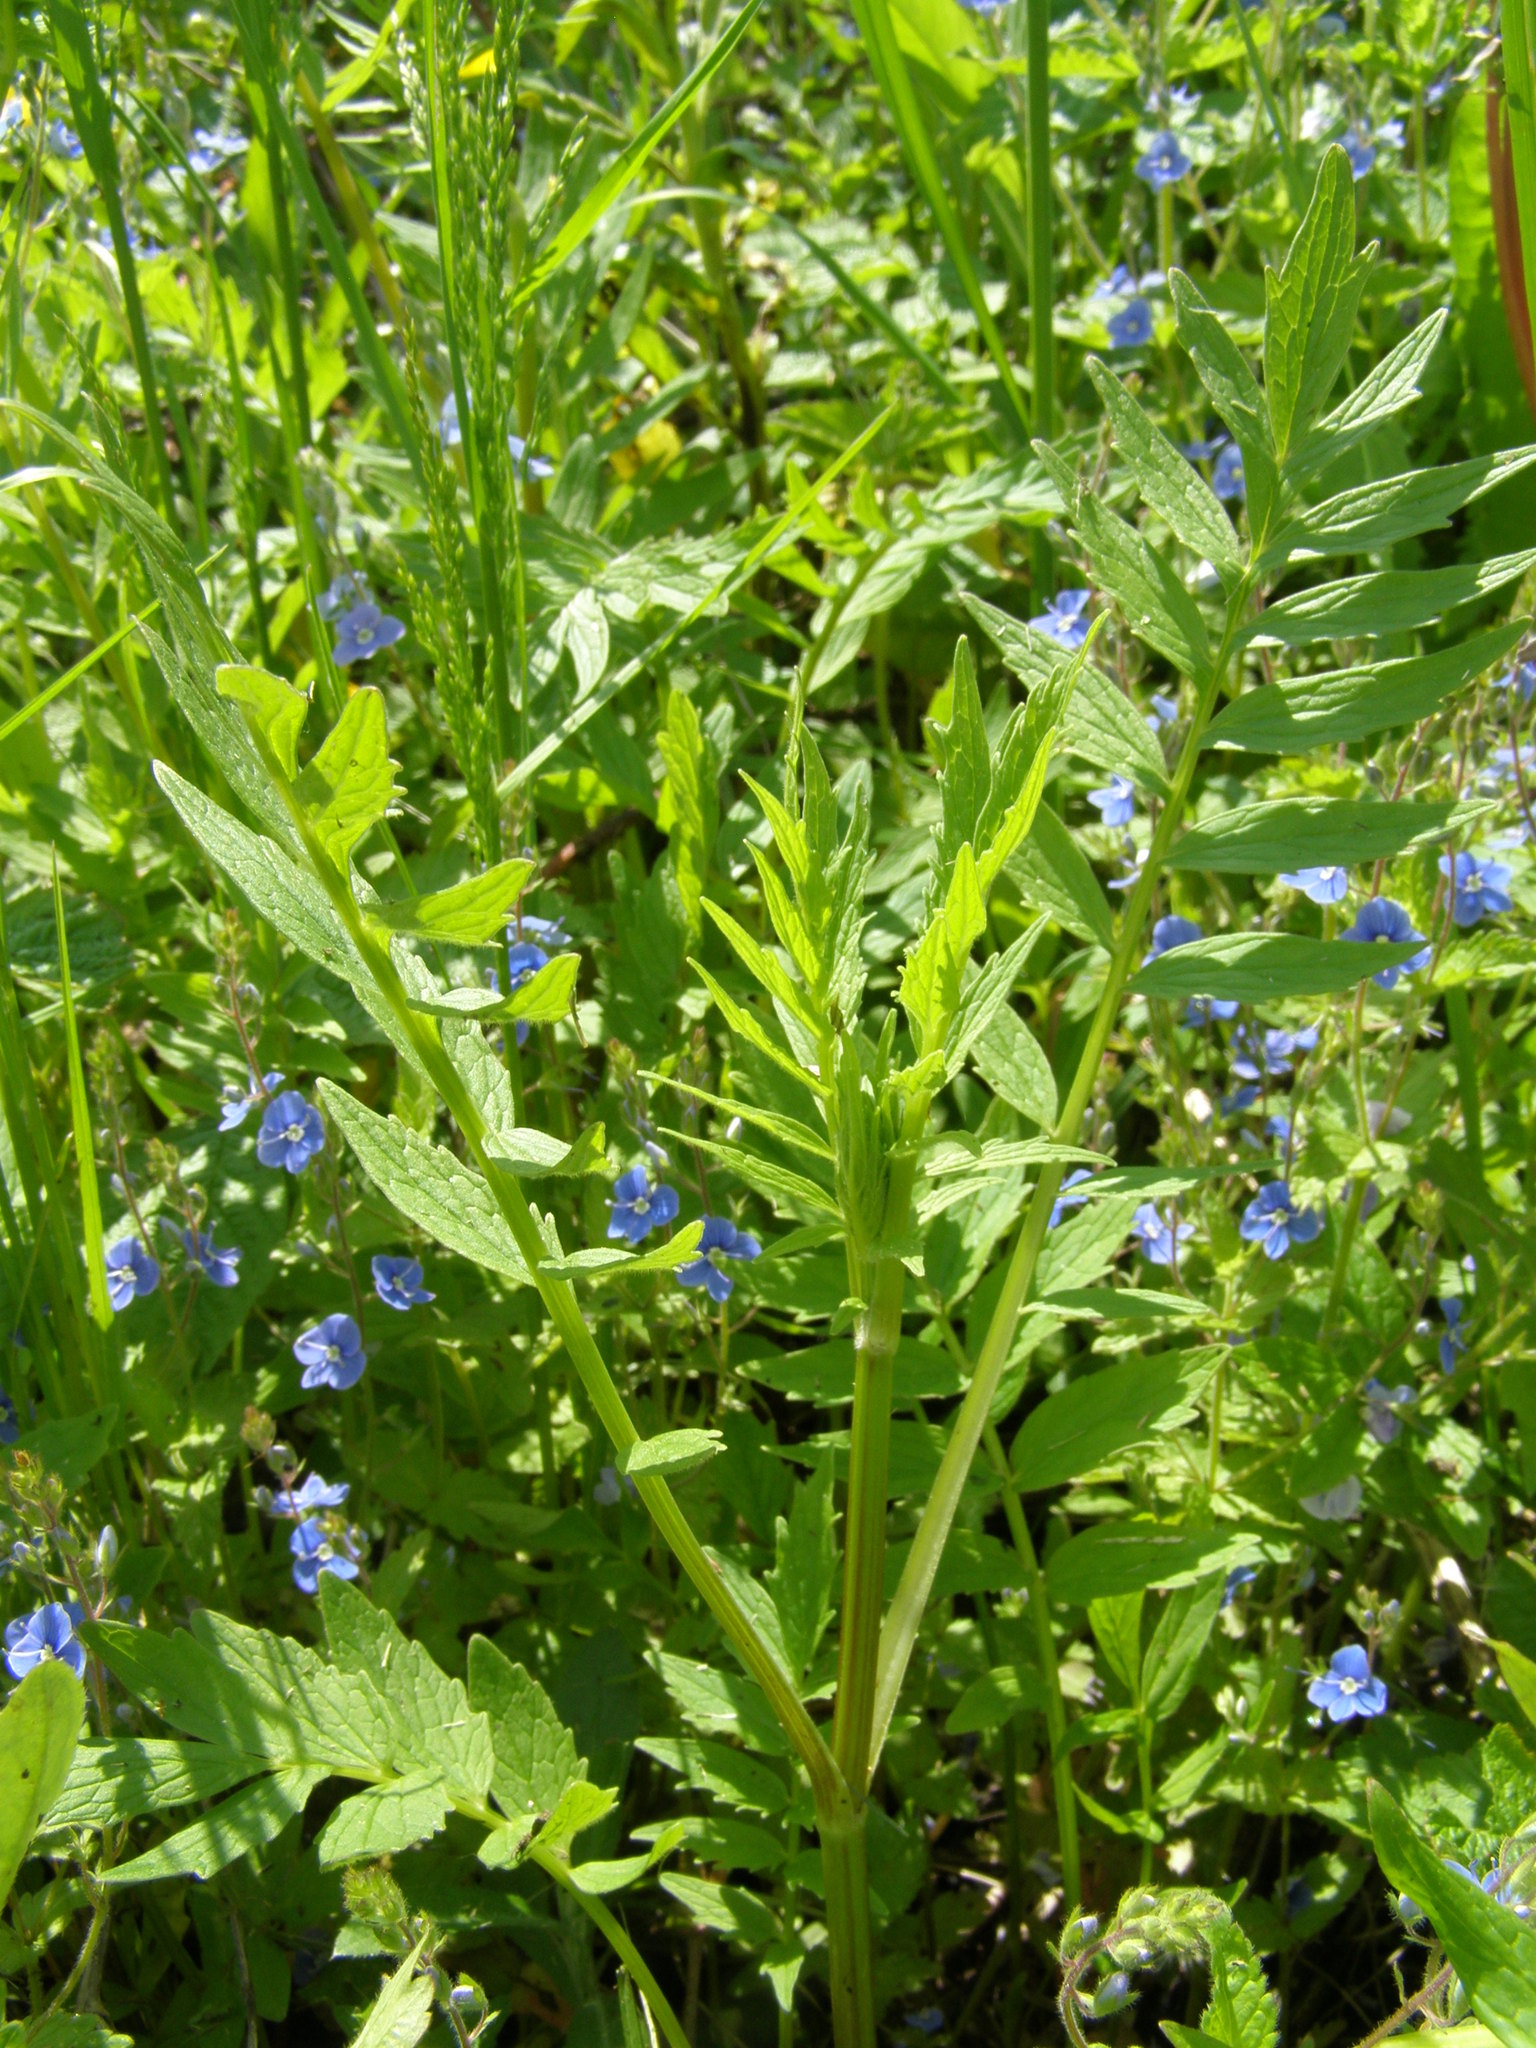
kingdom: Plantae
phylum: Tracheophyta
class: Magnoliopsida
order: Dipsacales
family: Caprifoliaceae
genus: Valeriana
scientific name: Valeriana officinalis
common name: Common valerian
